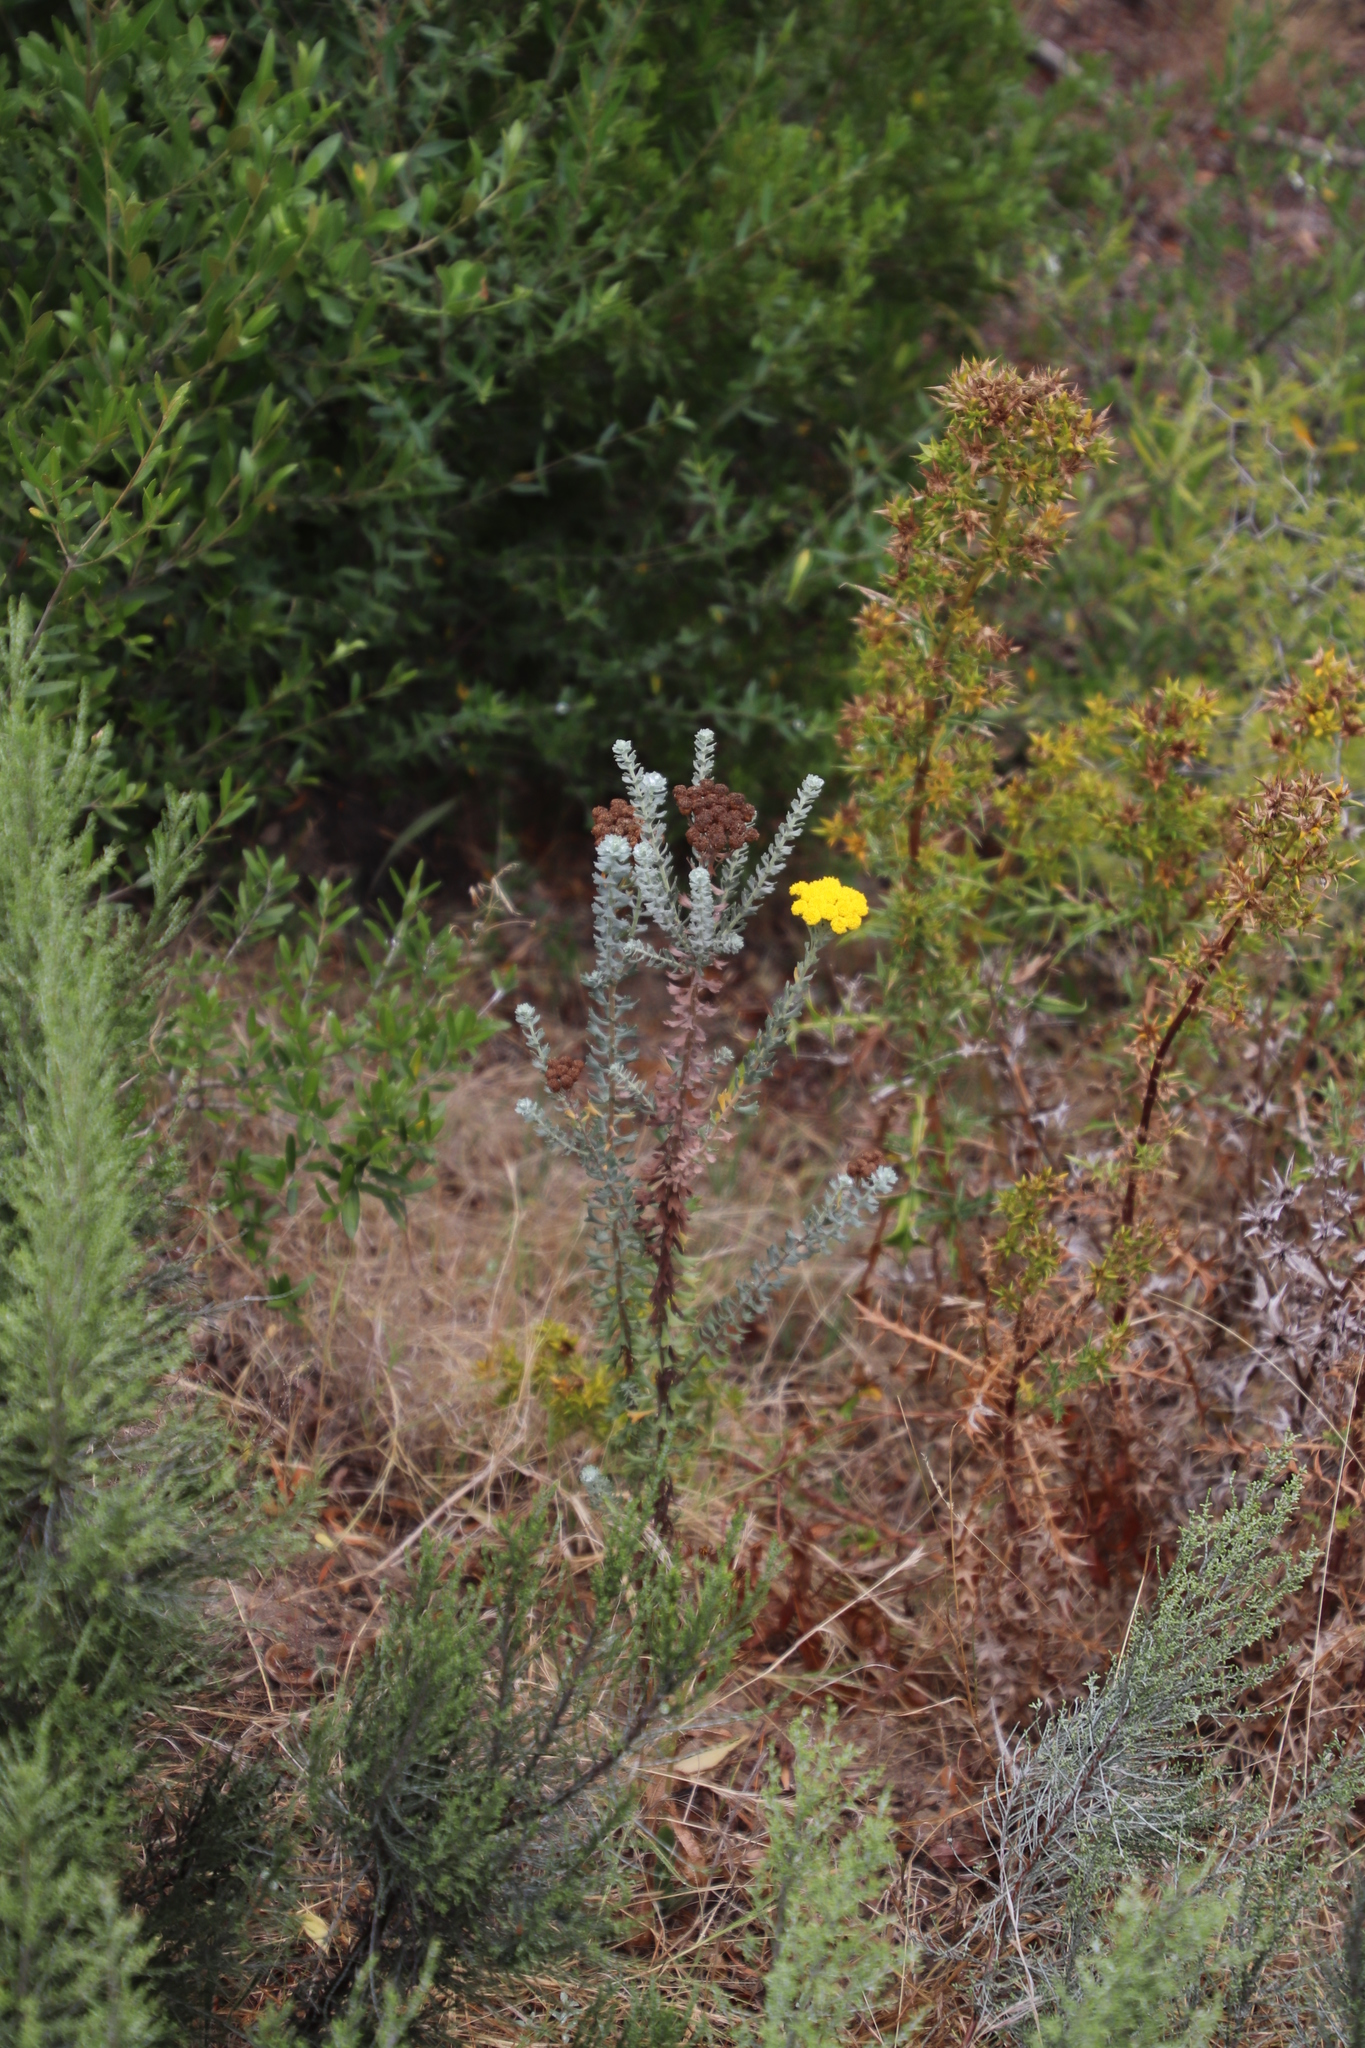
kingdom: Plantae
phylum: Tracheophyta
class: Magnoliopsida
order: Asterales
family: Asteraceae
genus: Athanasia
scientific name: Athanasia trifurcata
